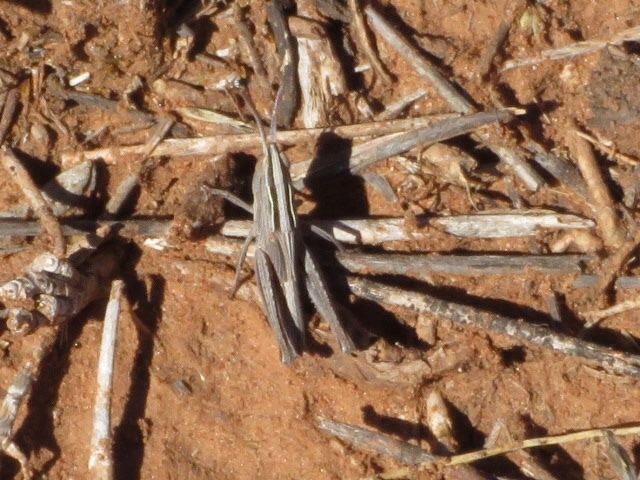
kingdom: Animalia
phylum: Arthropoda
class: Insecta
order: Orthoptera
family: Acrididae
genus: Eritettix
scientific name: Eritettix simplex
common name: Velvet-striped grasshopper
